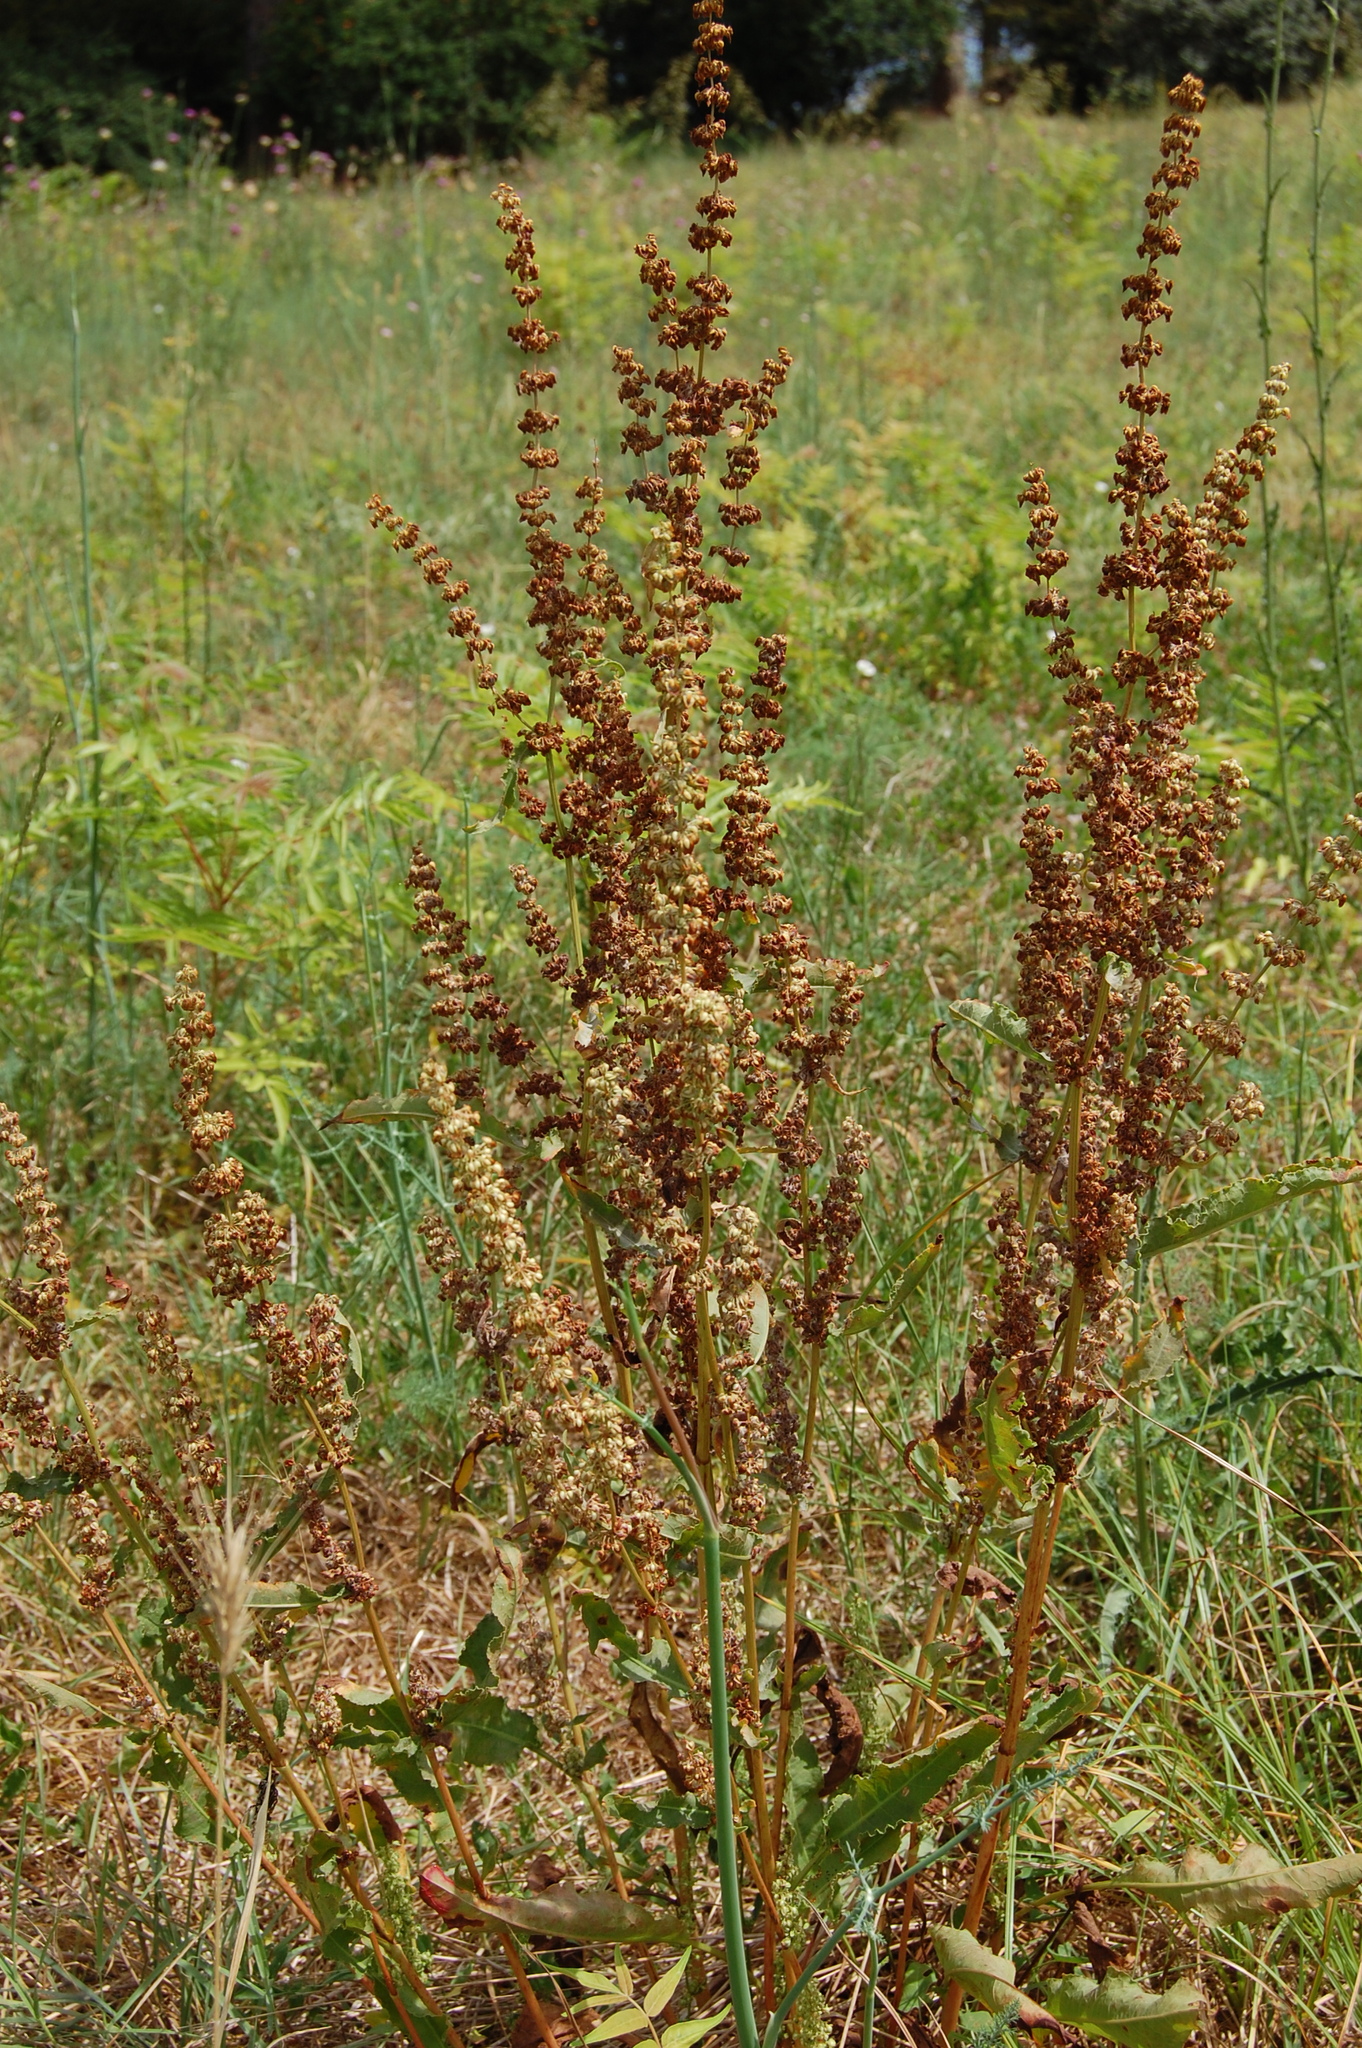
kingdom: Plantae
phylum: Tracheophyta
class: Magnoliopsida
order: Caryophyllales
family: Polygonaceae
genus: Rumex
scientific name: Rumex crispus
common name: Curled dock
